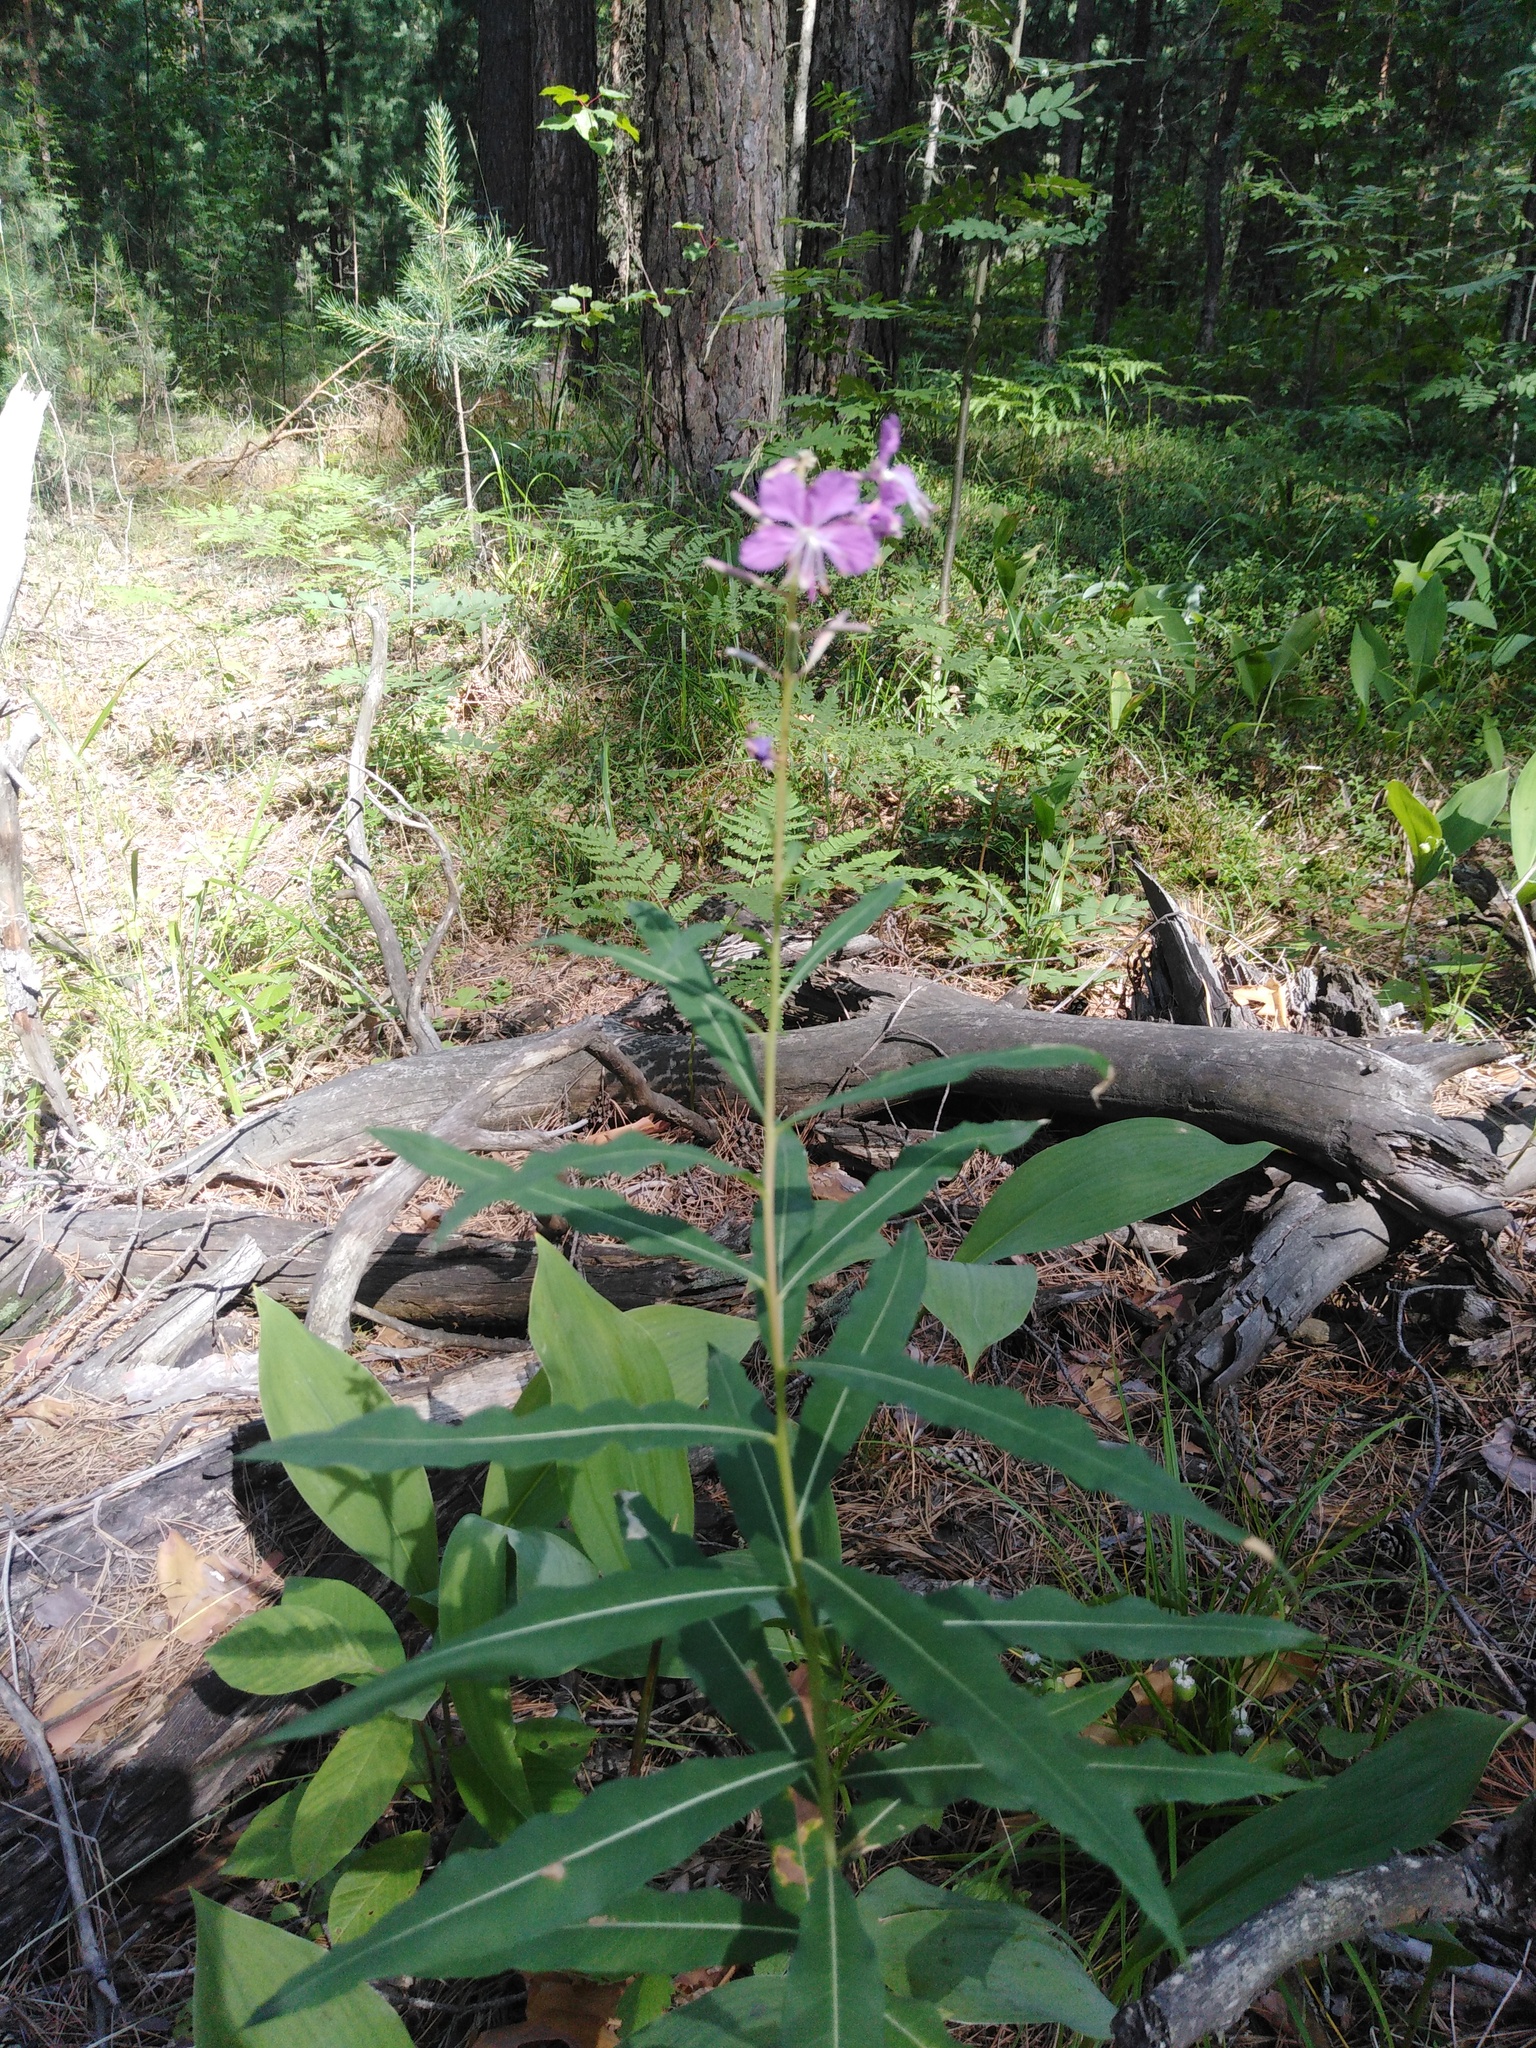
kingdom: Plantae
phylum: Tracheophyta
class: Magnoliopsida
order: Myrtales
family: Onagraceae
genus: Chamaenerion
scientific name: Chamaenerion angustifolium
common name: Fireweed
